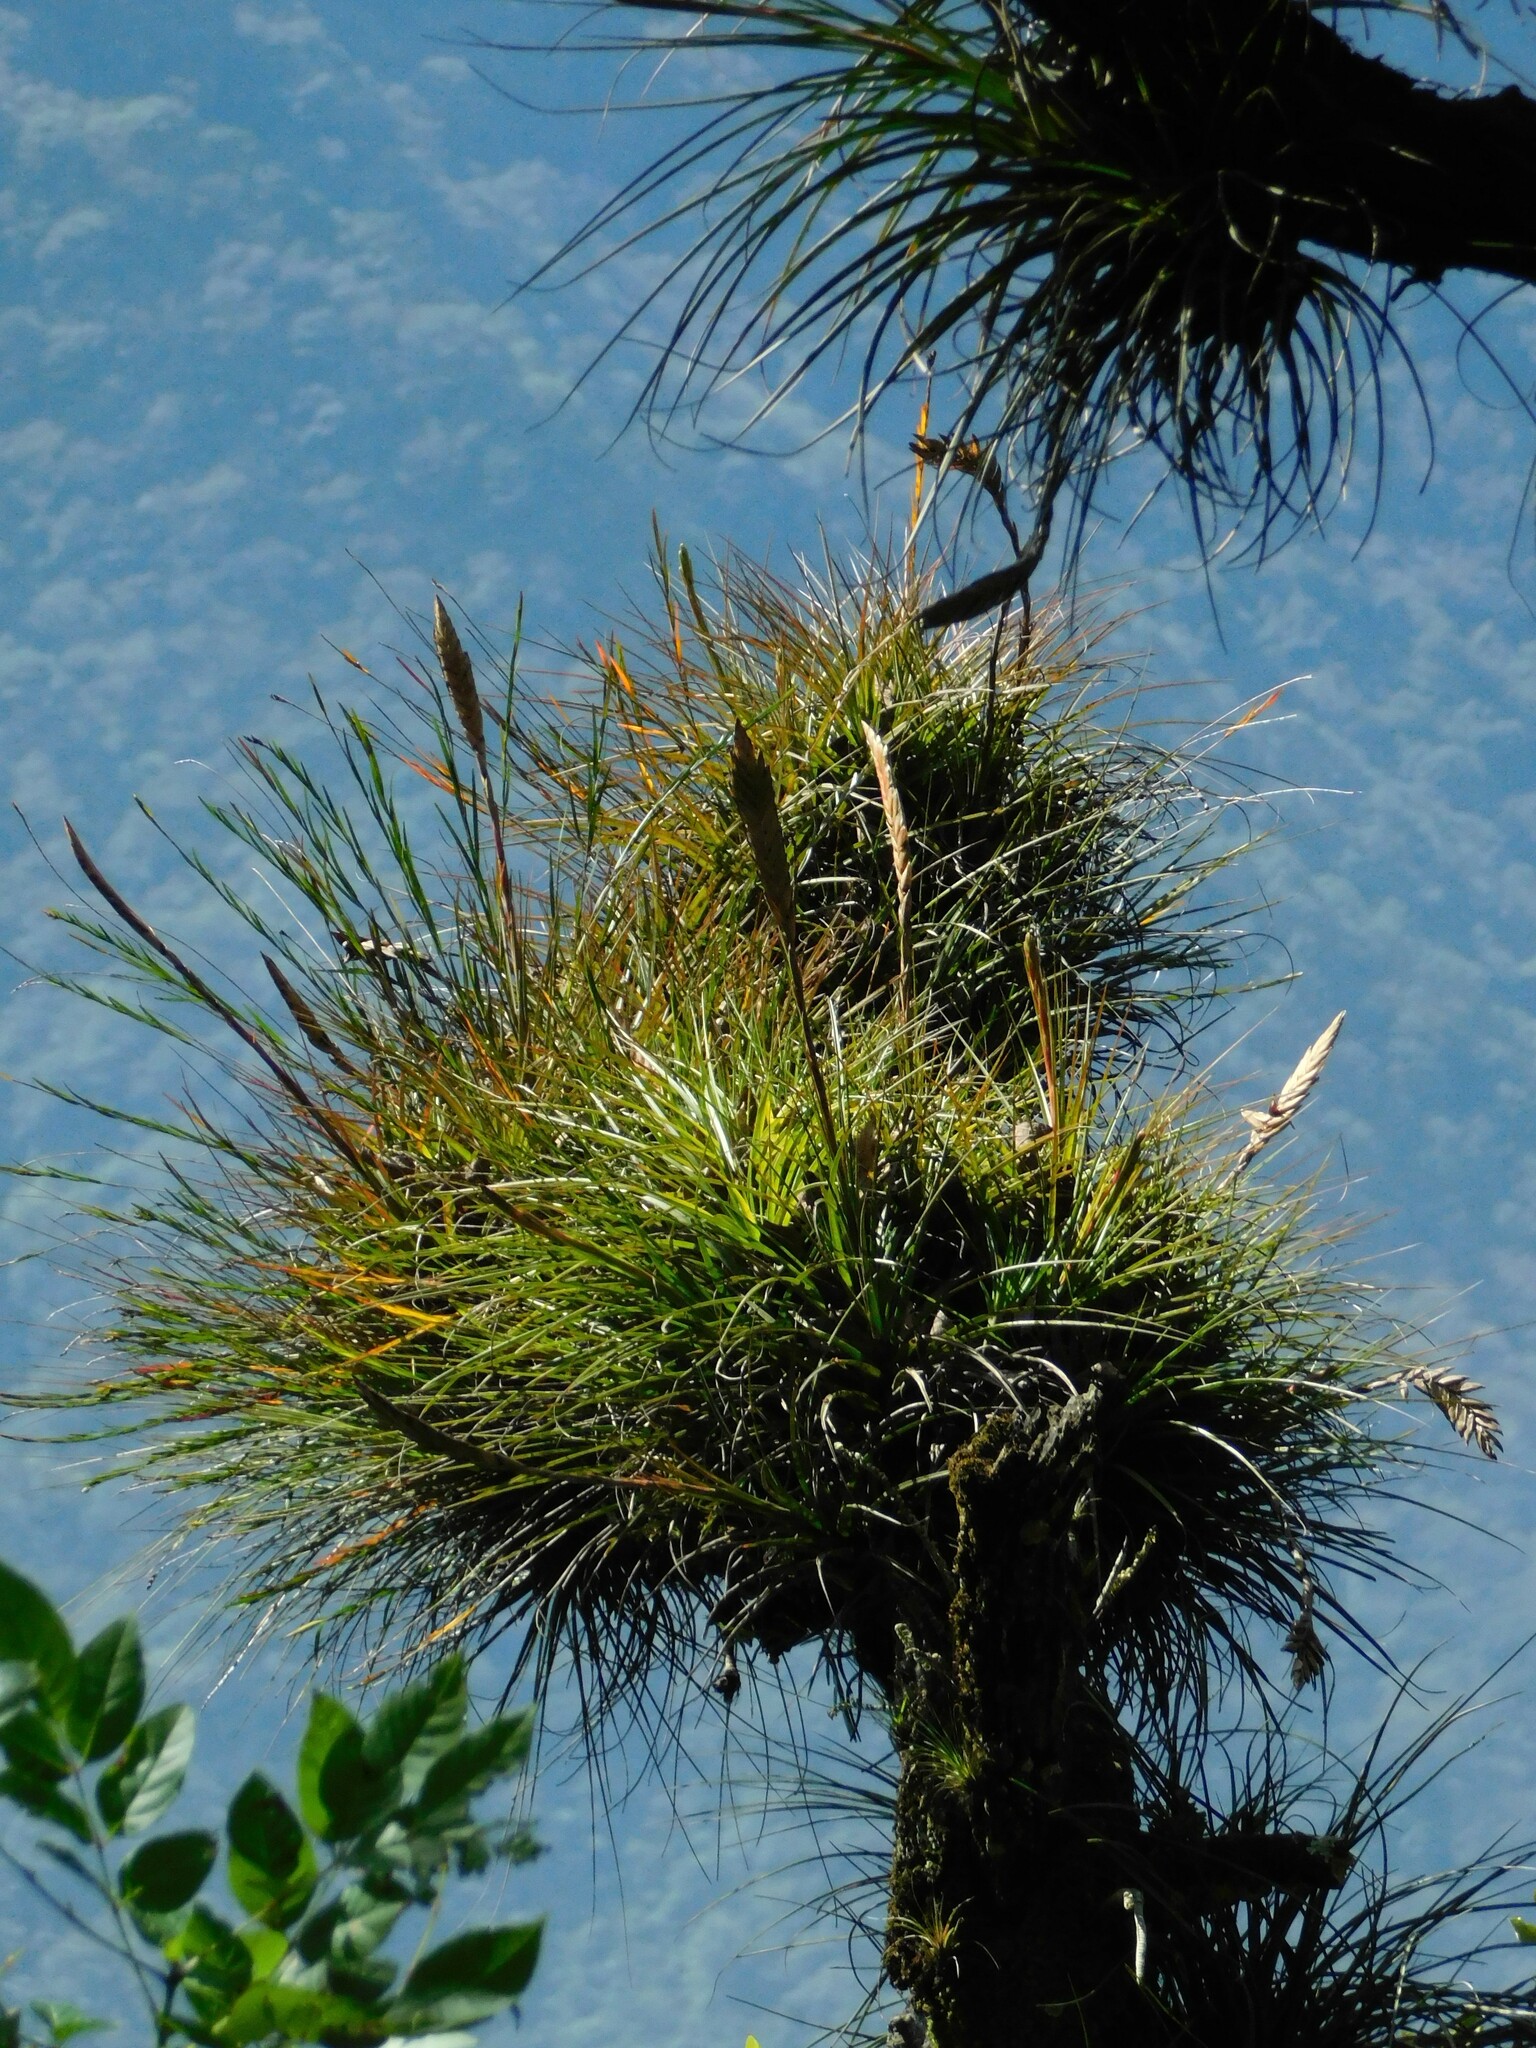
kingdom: Plantae
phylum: Tracheophyta
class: Liliopsida
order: Poales
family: Bromeliaceae
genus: Tillandsia
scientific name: Tillandsia tricolor
